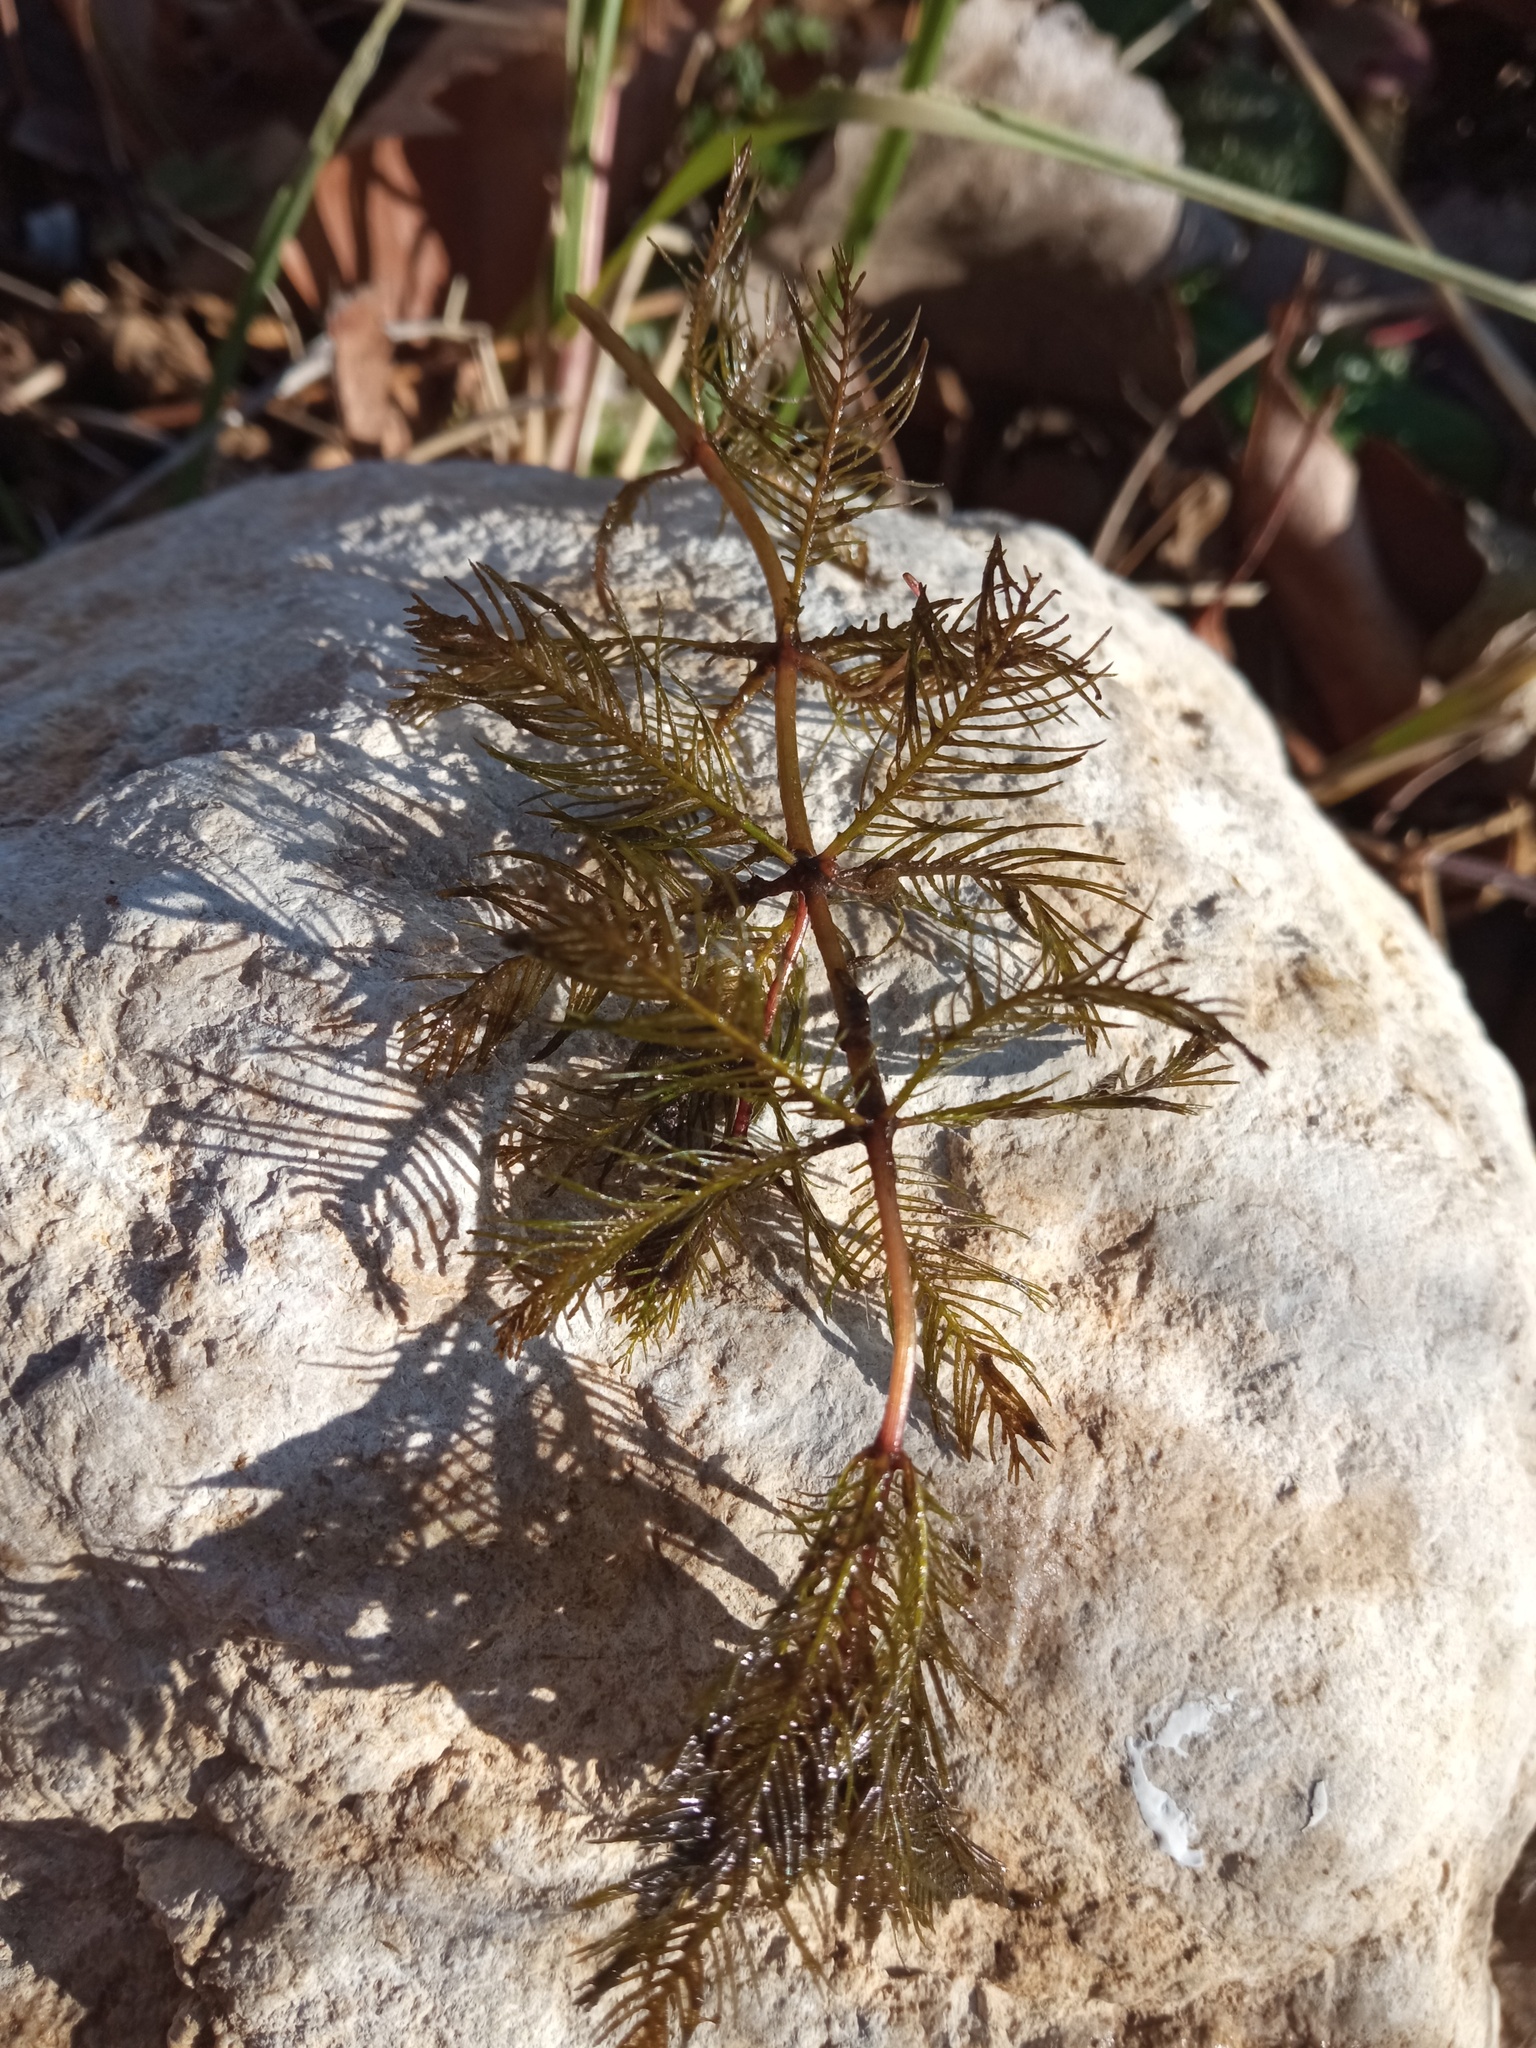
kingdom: Plantae
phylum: Tracheophyta
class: Magnoliopsida
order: Saxifragales
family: Haloragaceae
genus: Myriophyllum
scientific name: Myriophyllum spicatum
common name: Spiked water-milfoil
